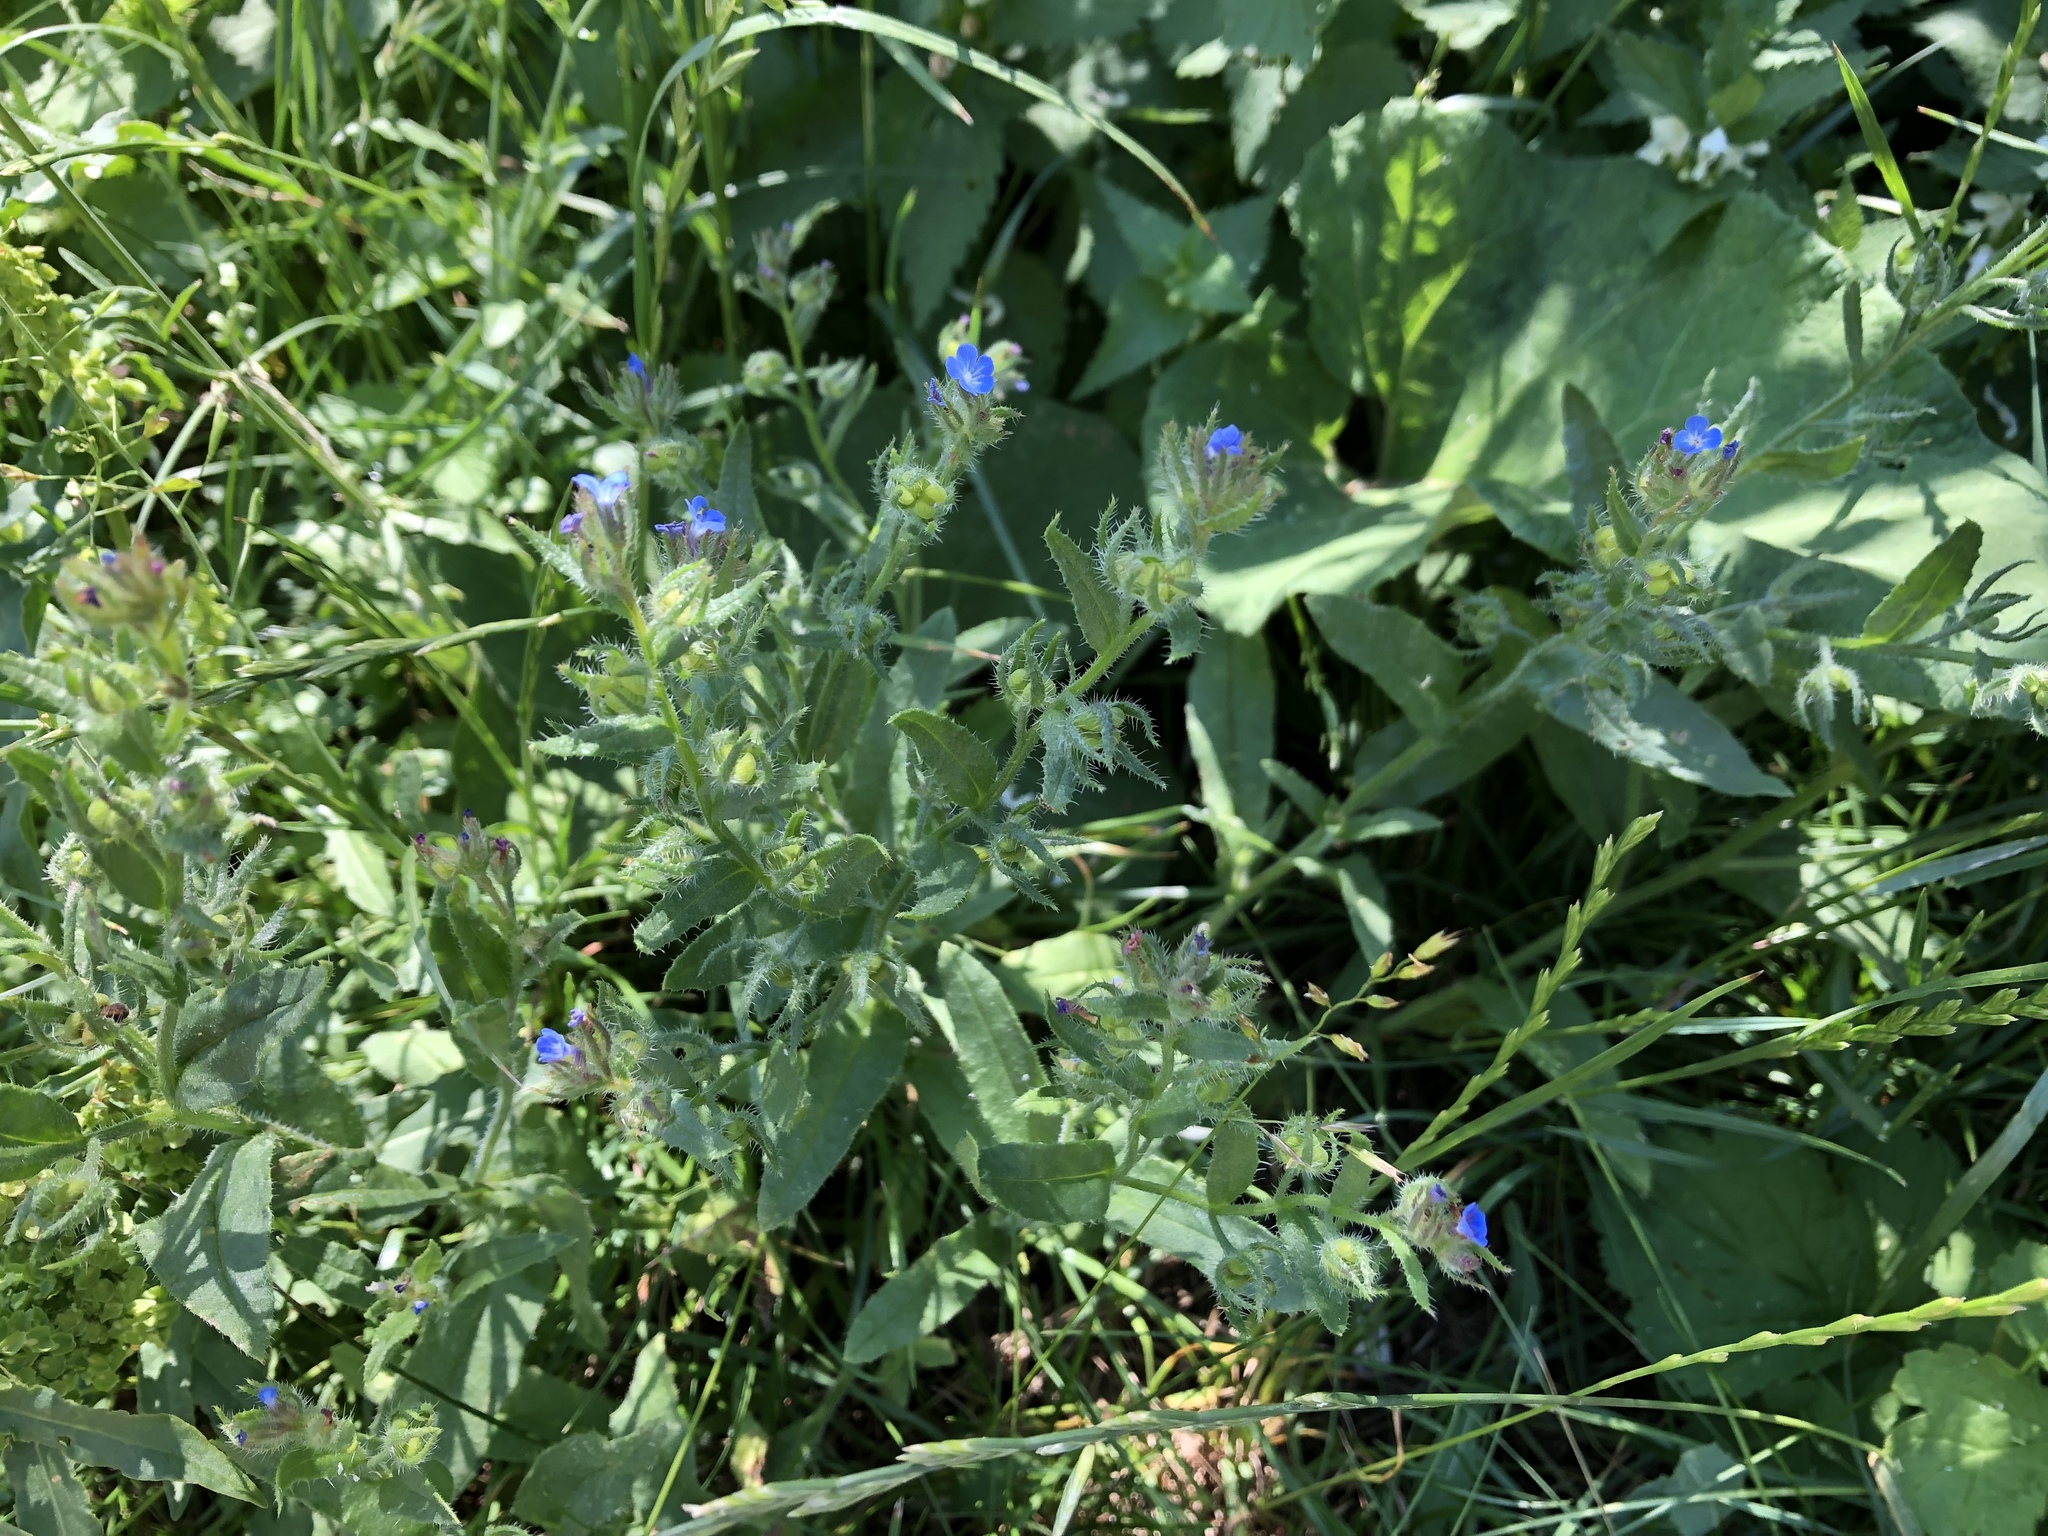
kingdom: Plantae
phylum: Tracheophyta
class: Magnoliopsida
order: Boraginales
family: Boraginaceae
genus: Lycopsis
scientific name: Lycopsis arvensis
